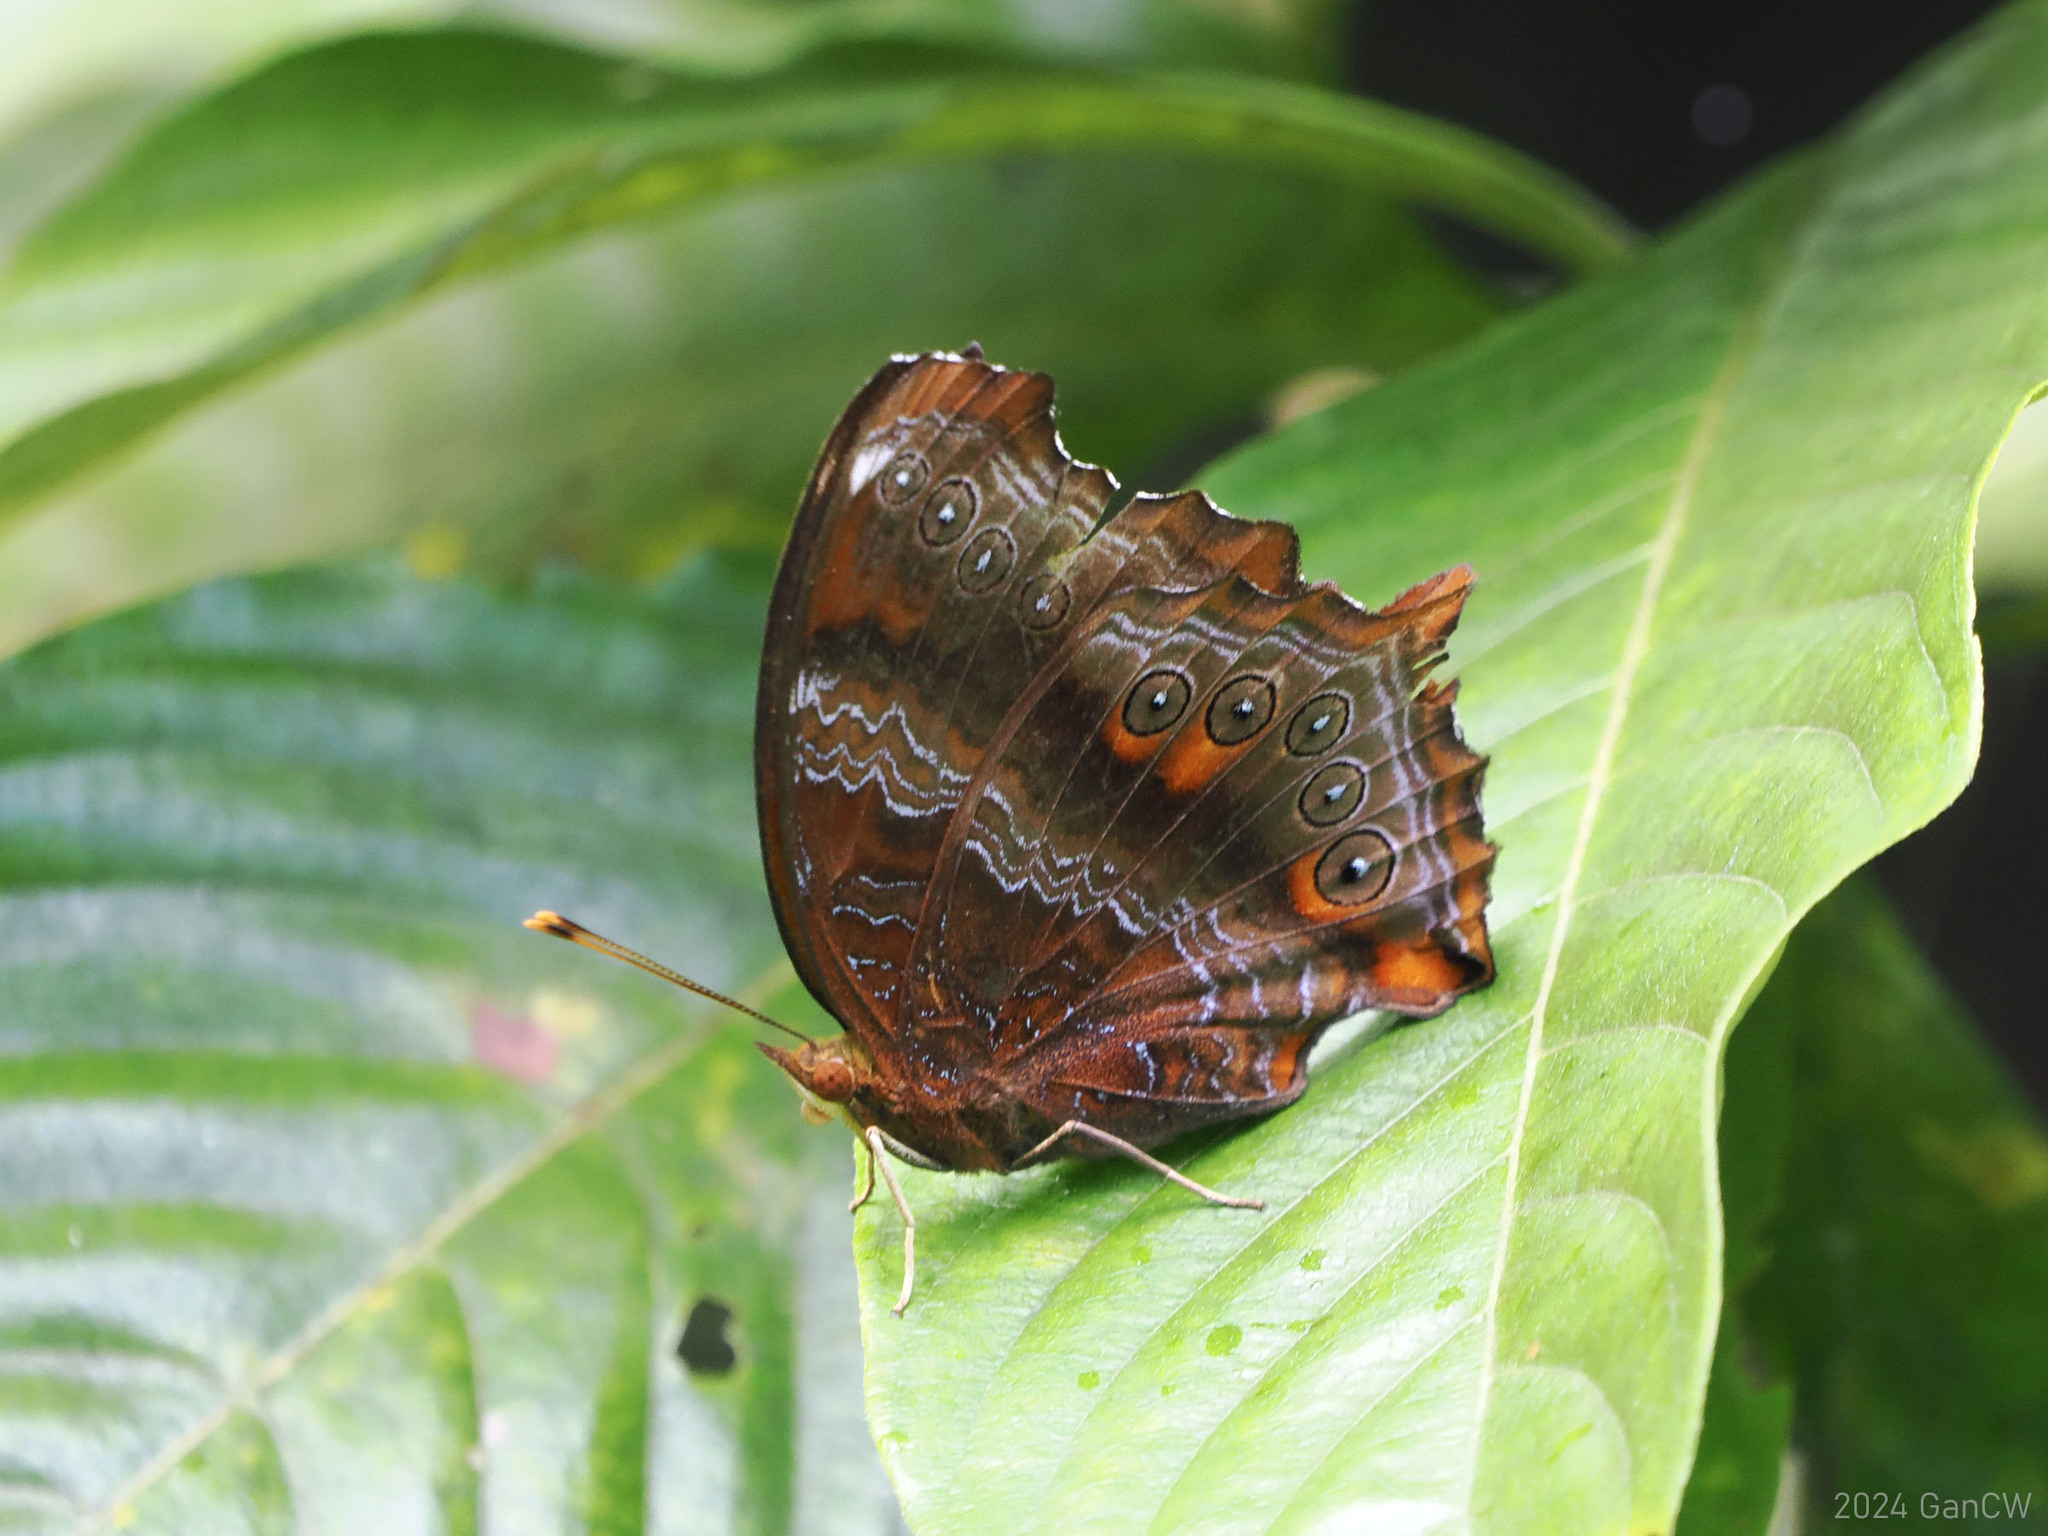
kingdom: Animalia
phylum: Arthropoda
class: Insecta
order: Lepidoptera
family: Nymphalidae
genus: Rhinopalpa
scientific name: Rhinopalpa polynice
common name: Wizard
